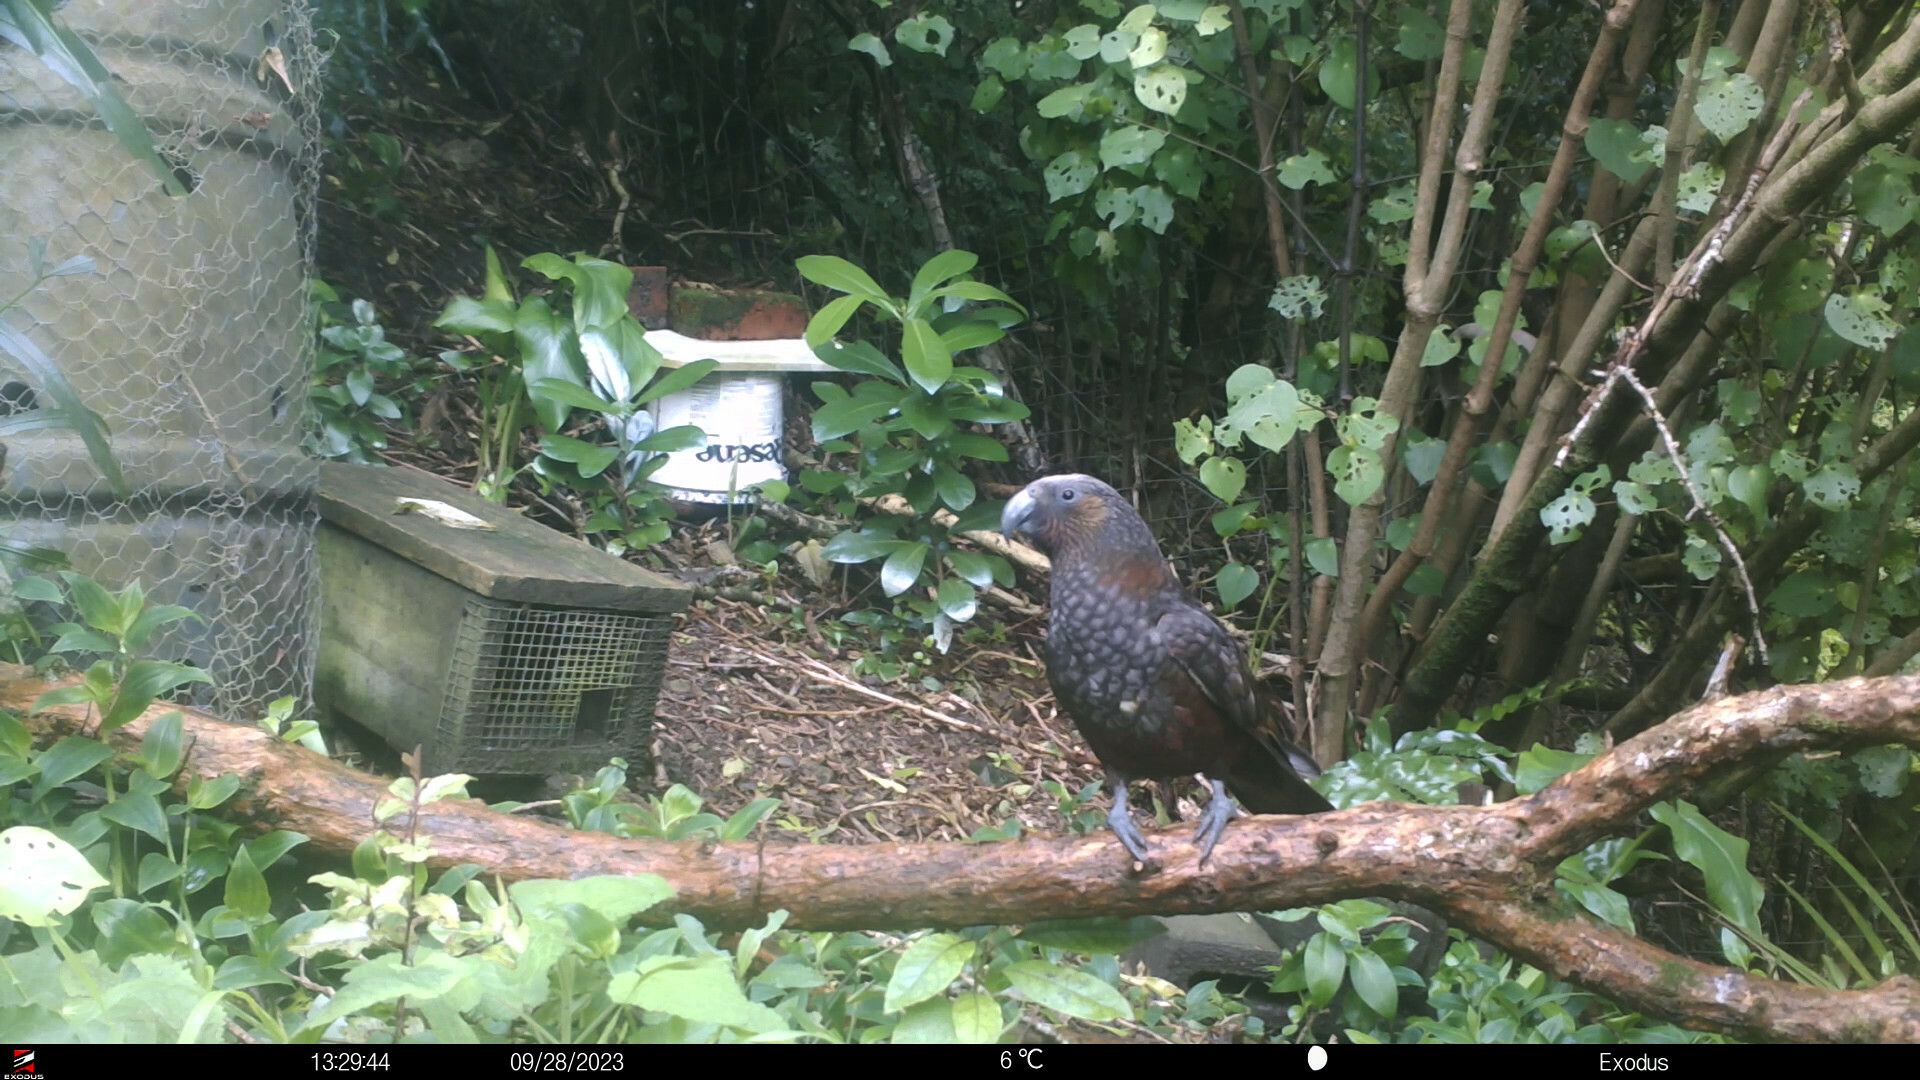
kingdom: Animalia
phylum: Chordata
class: Aves
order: Psittaciformes
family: Psittacidae
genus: Nestor
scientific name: Nestor meridionalis
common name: New zealand kaka
